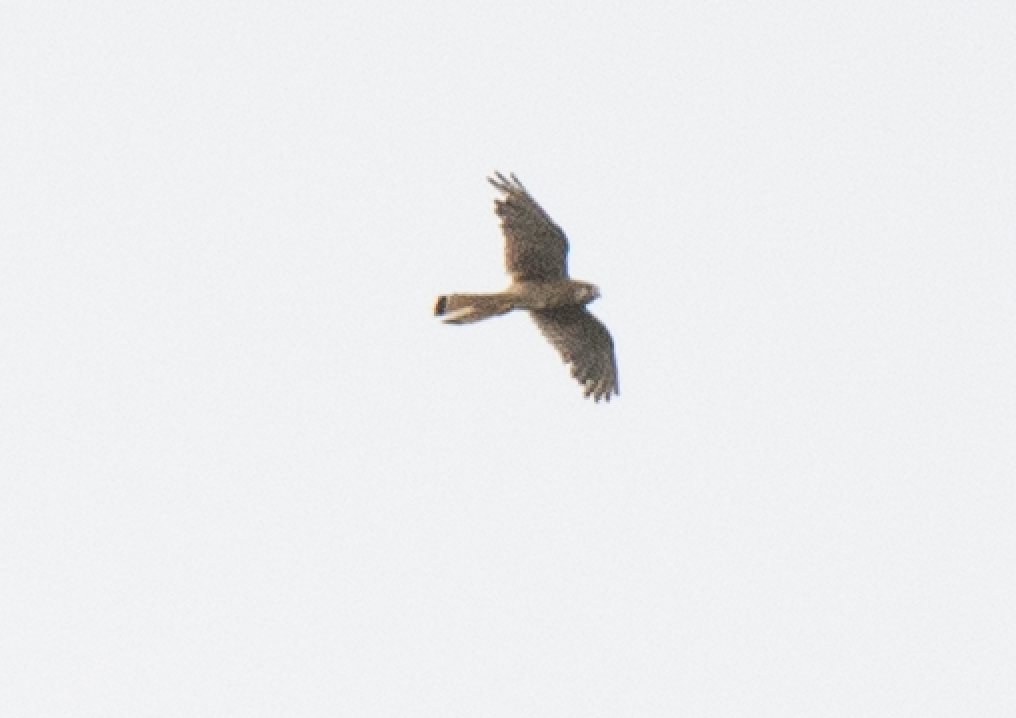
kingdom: Animalia
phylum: Chordata
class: Aves
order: Falconiformes
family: Falconidae
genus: Falco
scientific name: Falco tinnunculus
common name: Common kestrel
